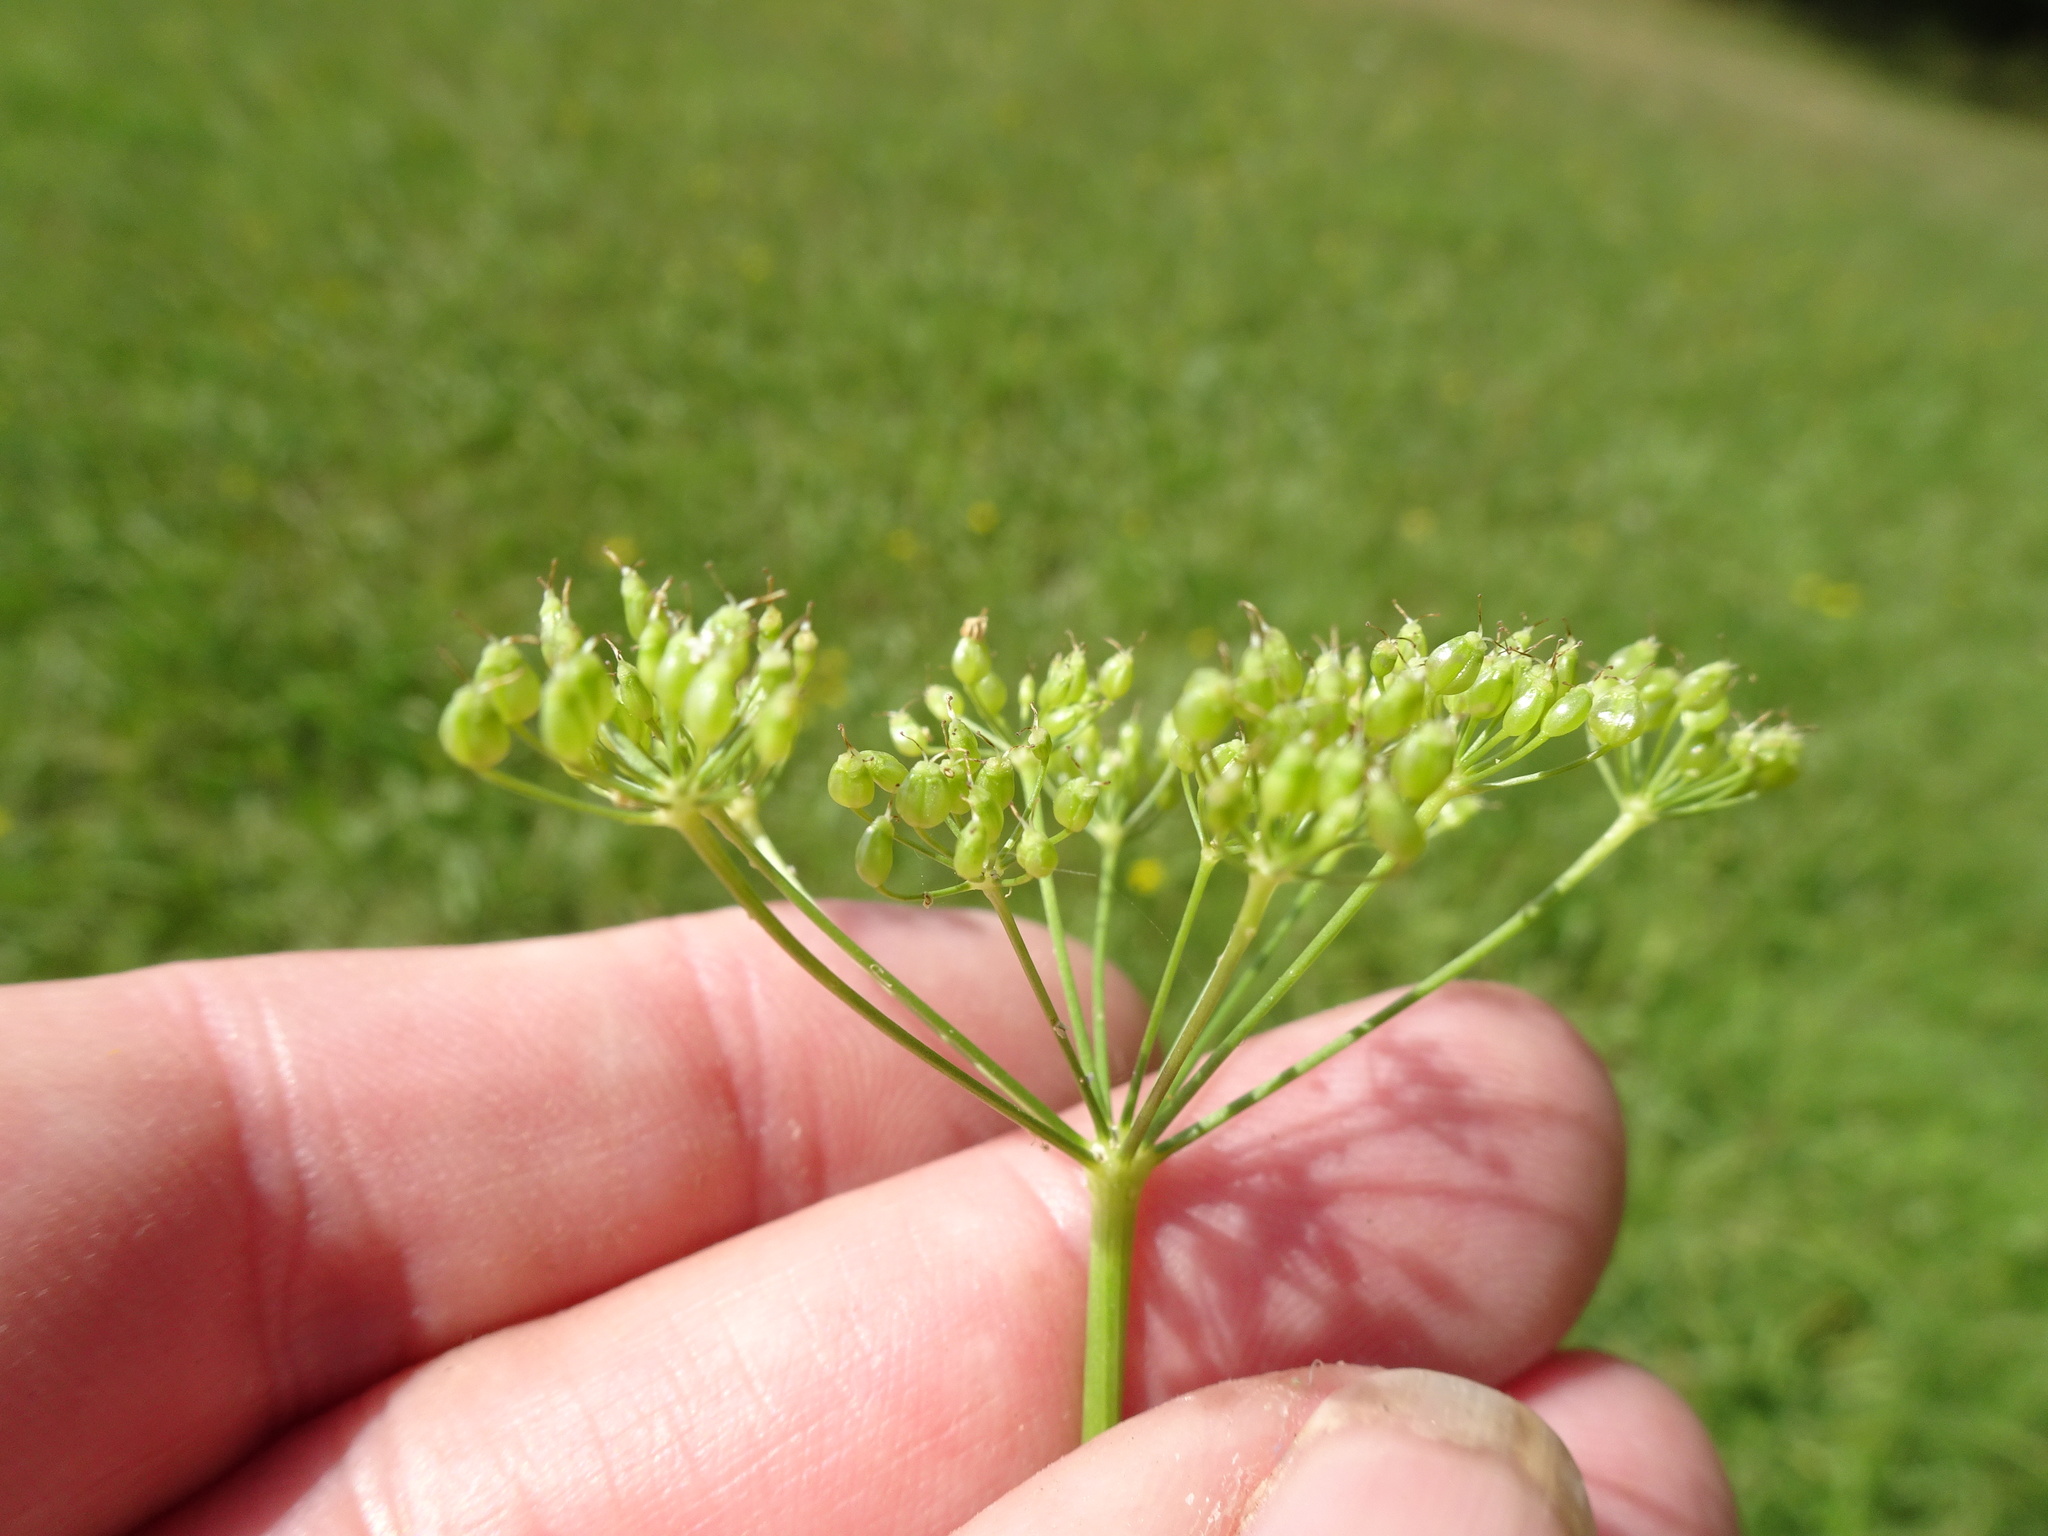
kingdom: Plantae
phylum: Tracheophyta
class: Magnoliopsida
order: Apiales
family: Apiaceae
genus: Pimpinella
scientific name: Pimpinella saxifraga
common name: Burnet-saxifrage
